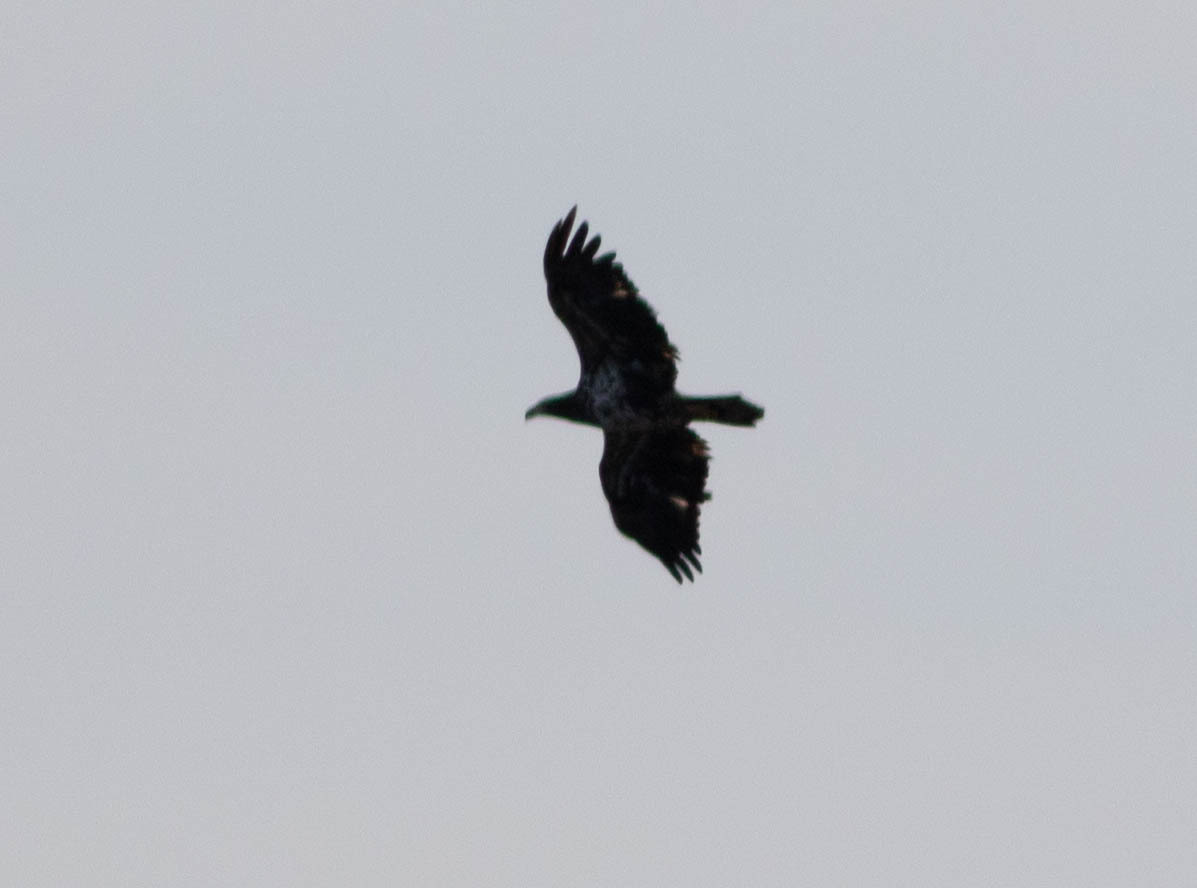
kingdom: Animalia
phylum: Chordata
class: Aves
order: Accipitriformes
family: Accipitridae
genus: Haliaeetus
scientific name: Haliaeetus leucocephalus
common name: Bald eagle
